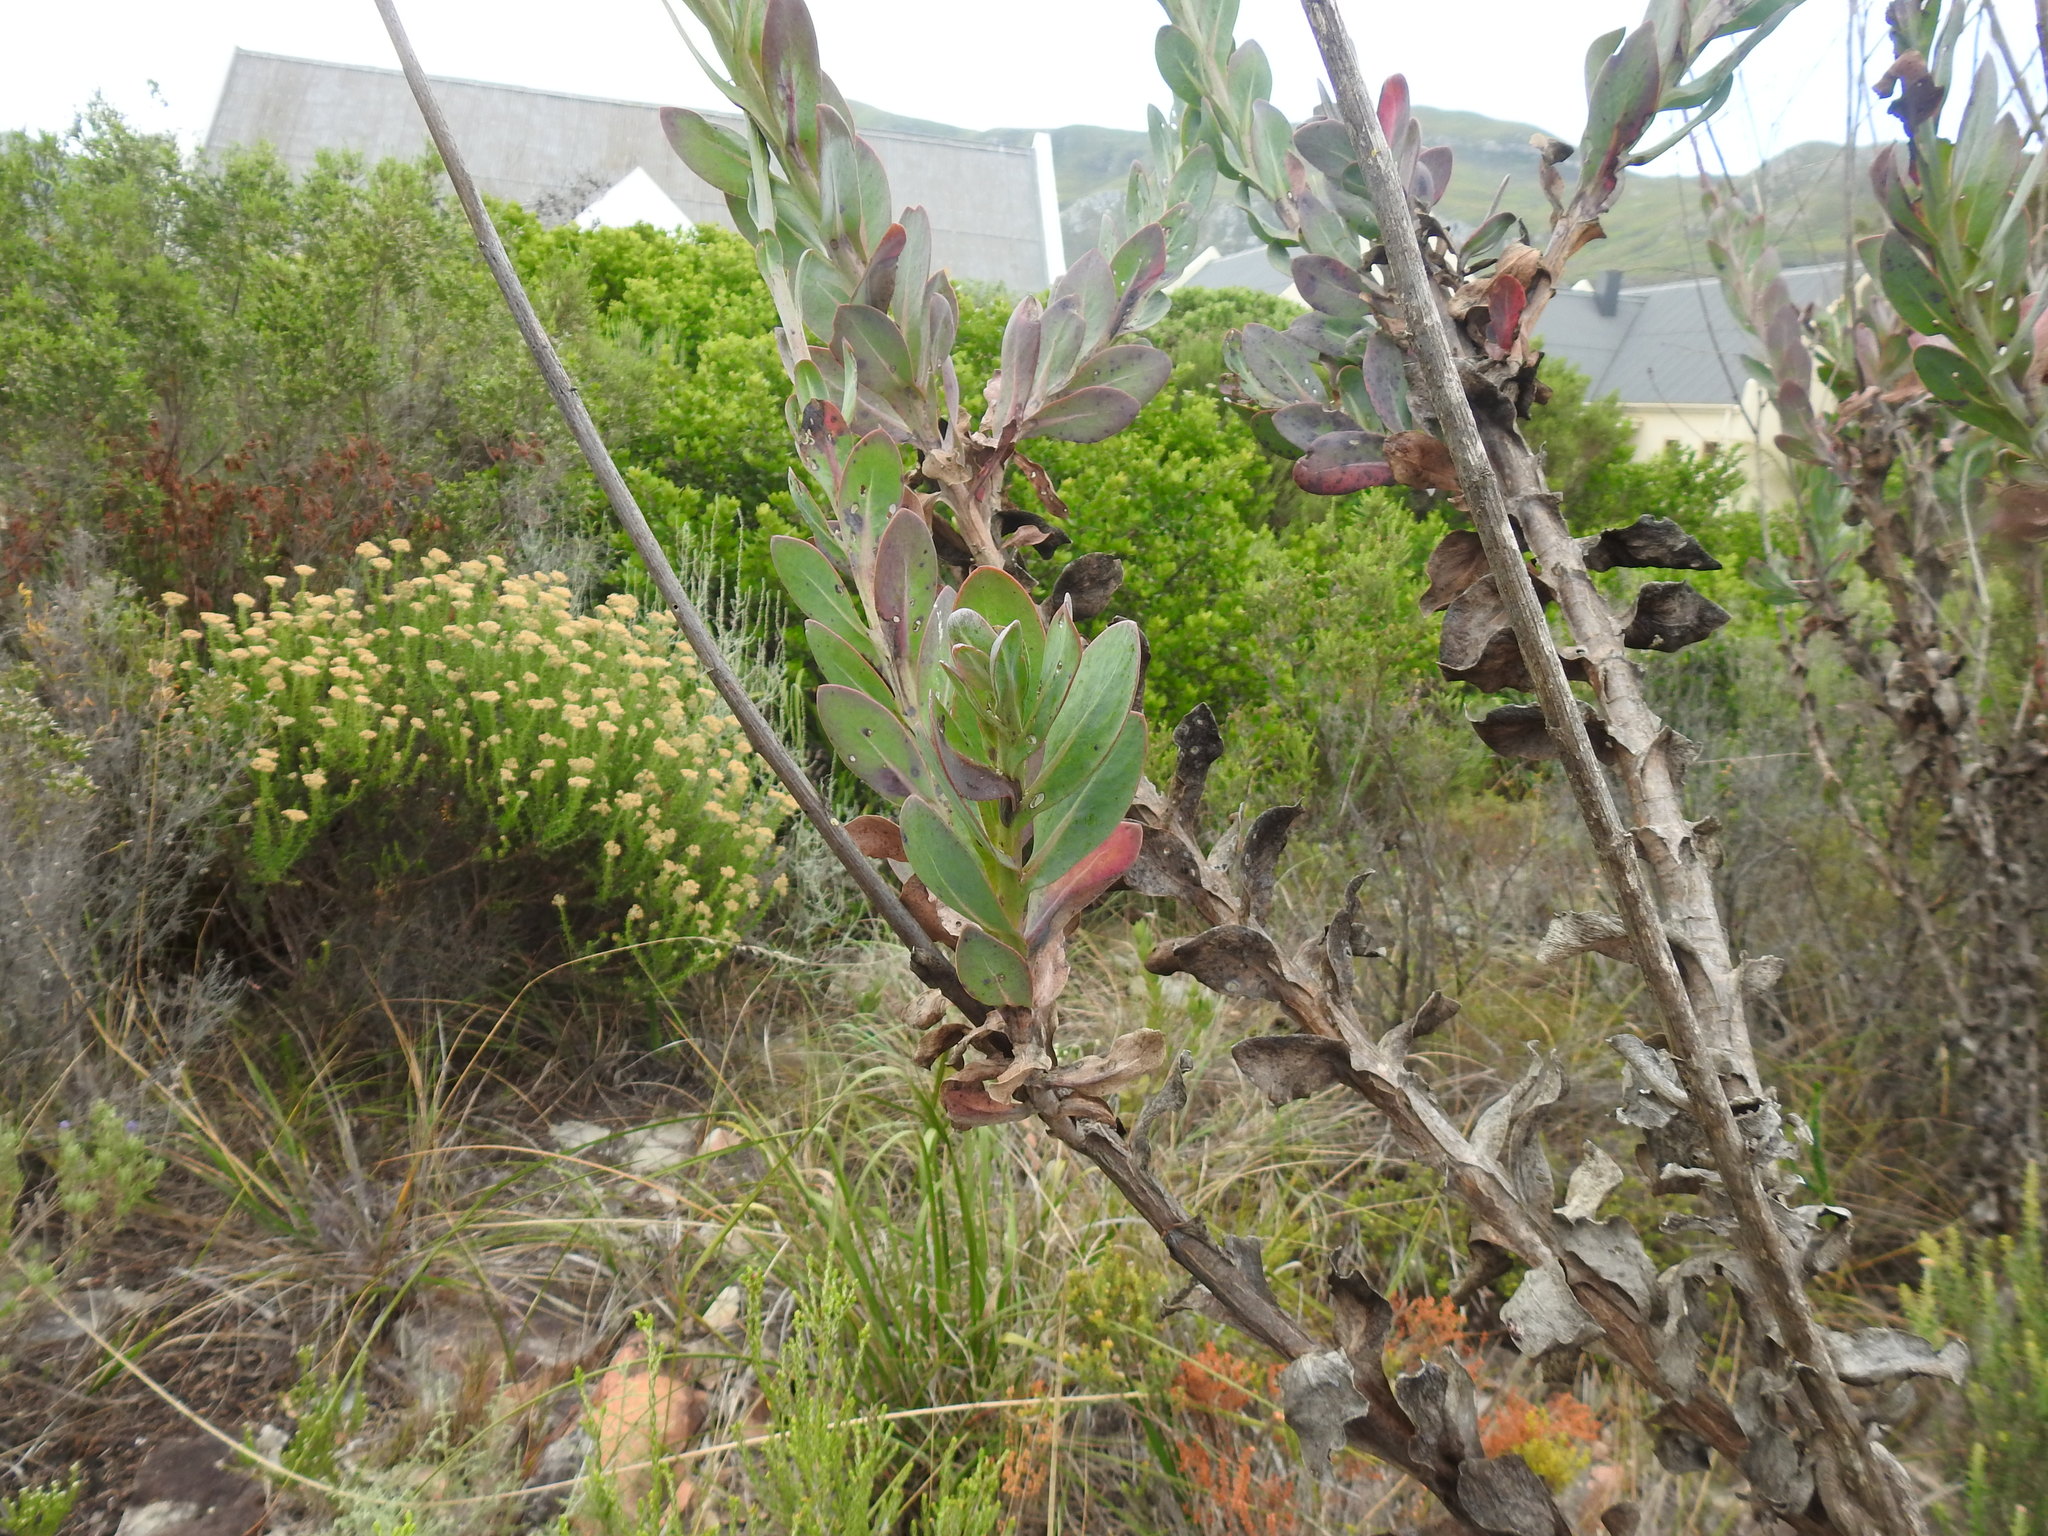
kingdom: Plantae
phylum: Tracheophyta
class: Magnoliopsida
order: Asterales
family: Asteraceae
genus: Othonna
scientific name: Othonna quinquedentata
